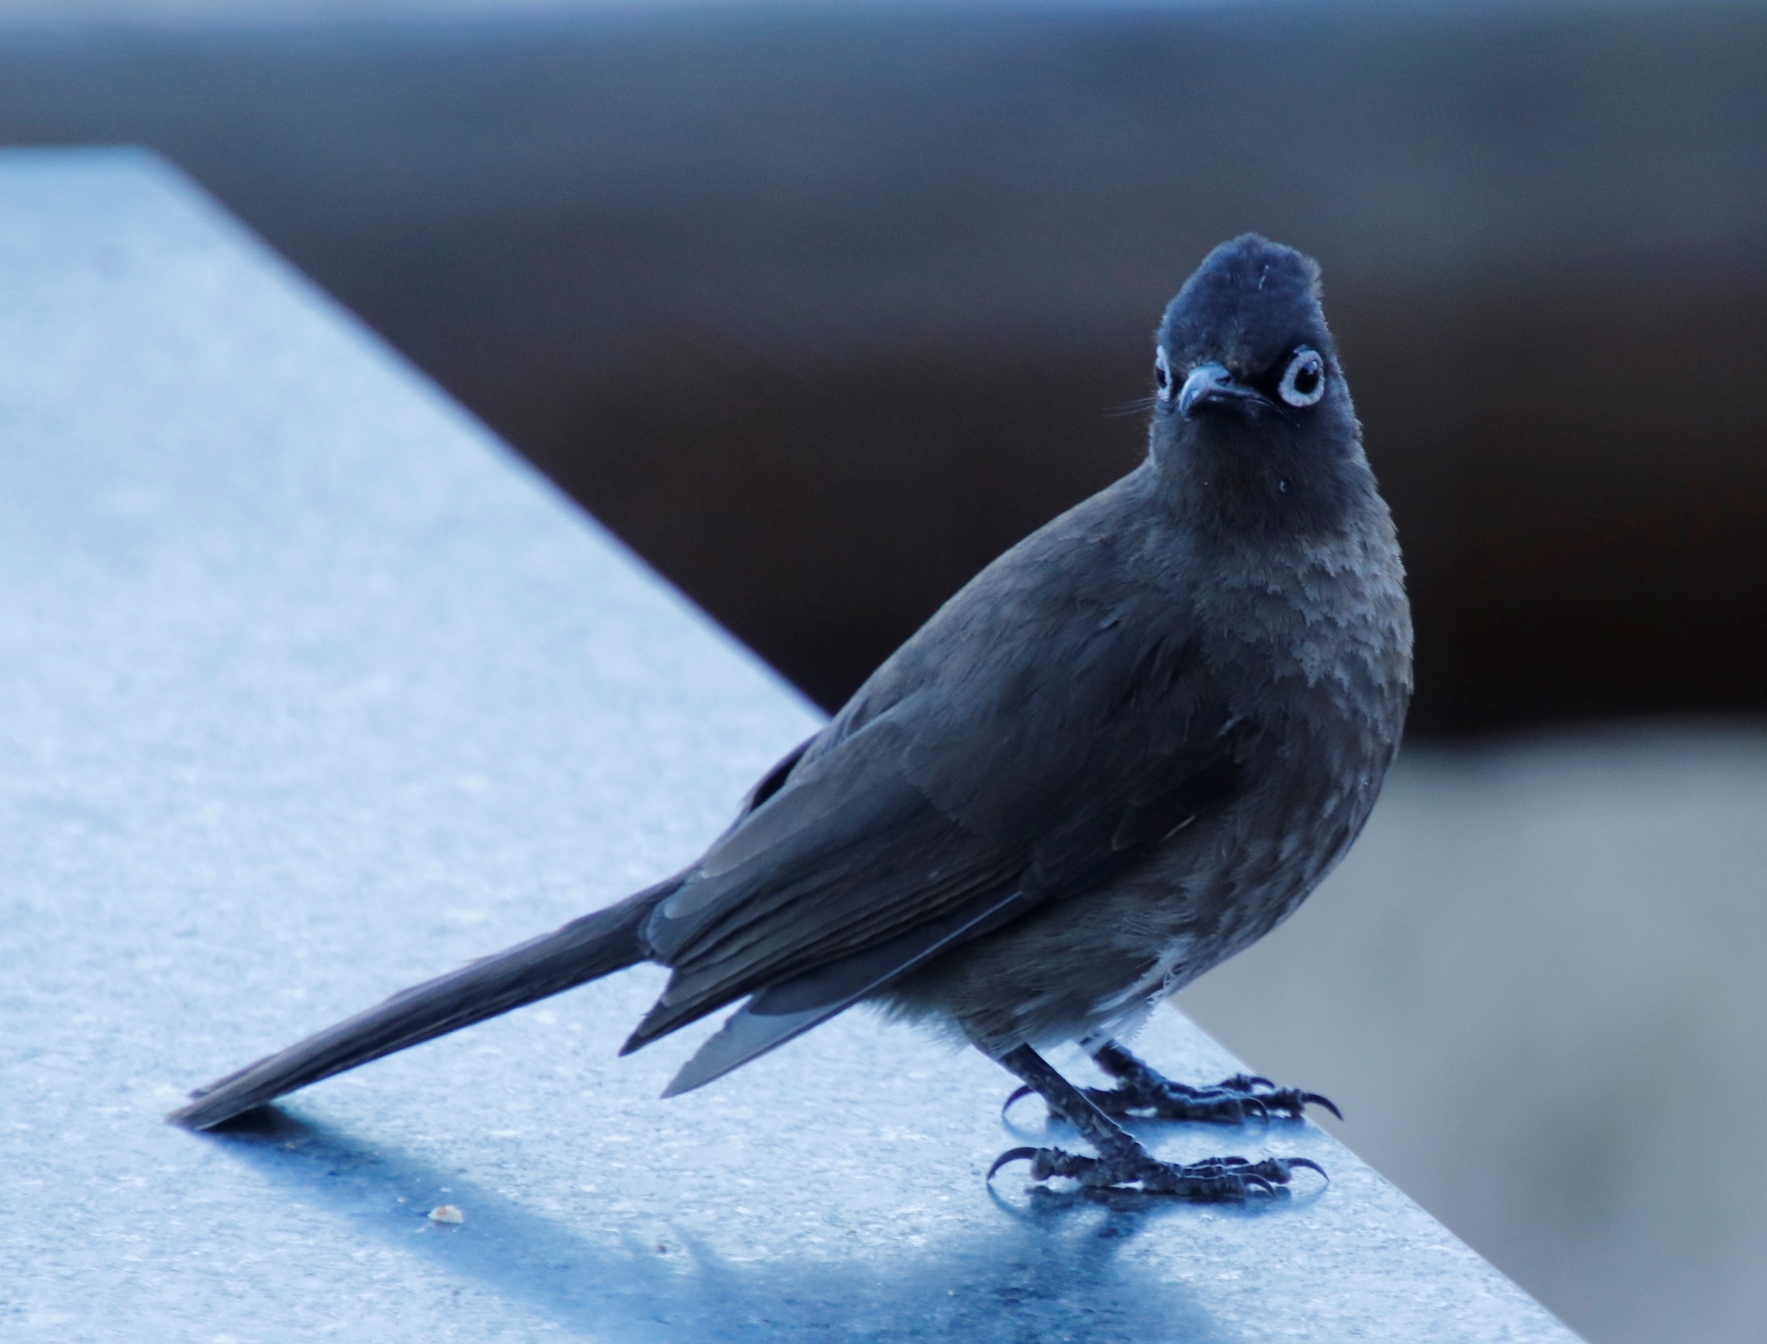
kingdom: Animalia
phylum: Chordata
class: Aves
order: Passeriformes
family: Pycnonotidae
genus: Pycnonotus
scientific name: Pycnonotus capensis
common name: Cape bulbul
